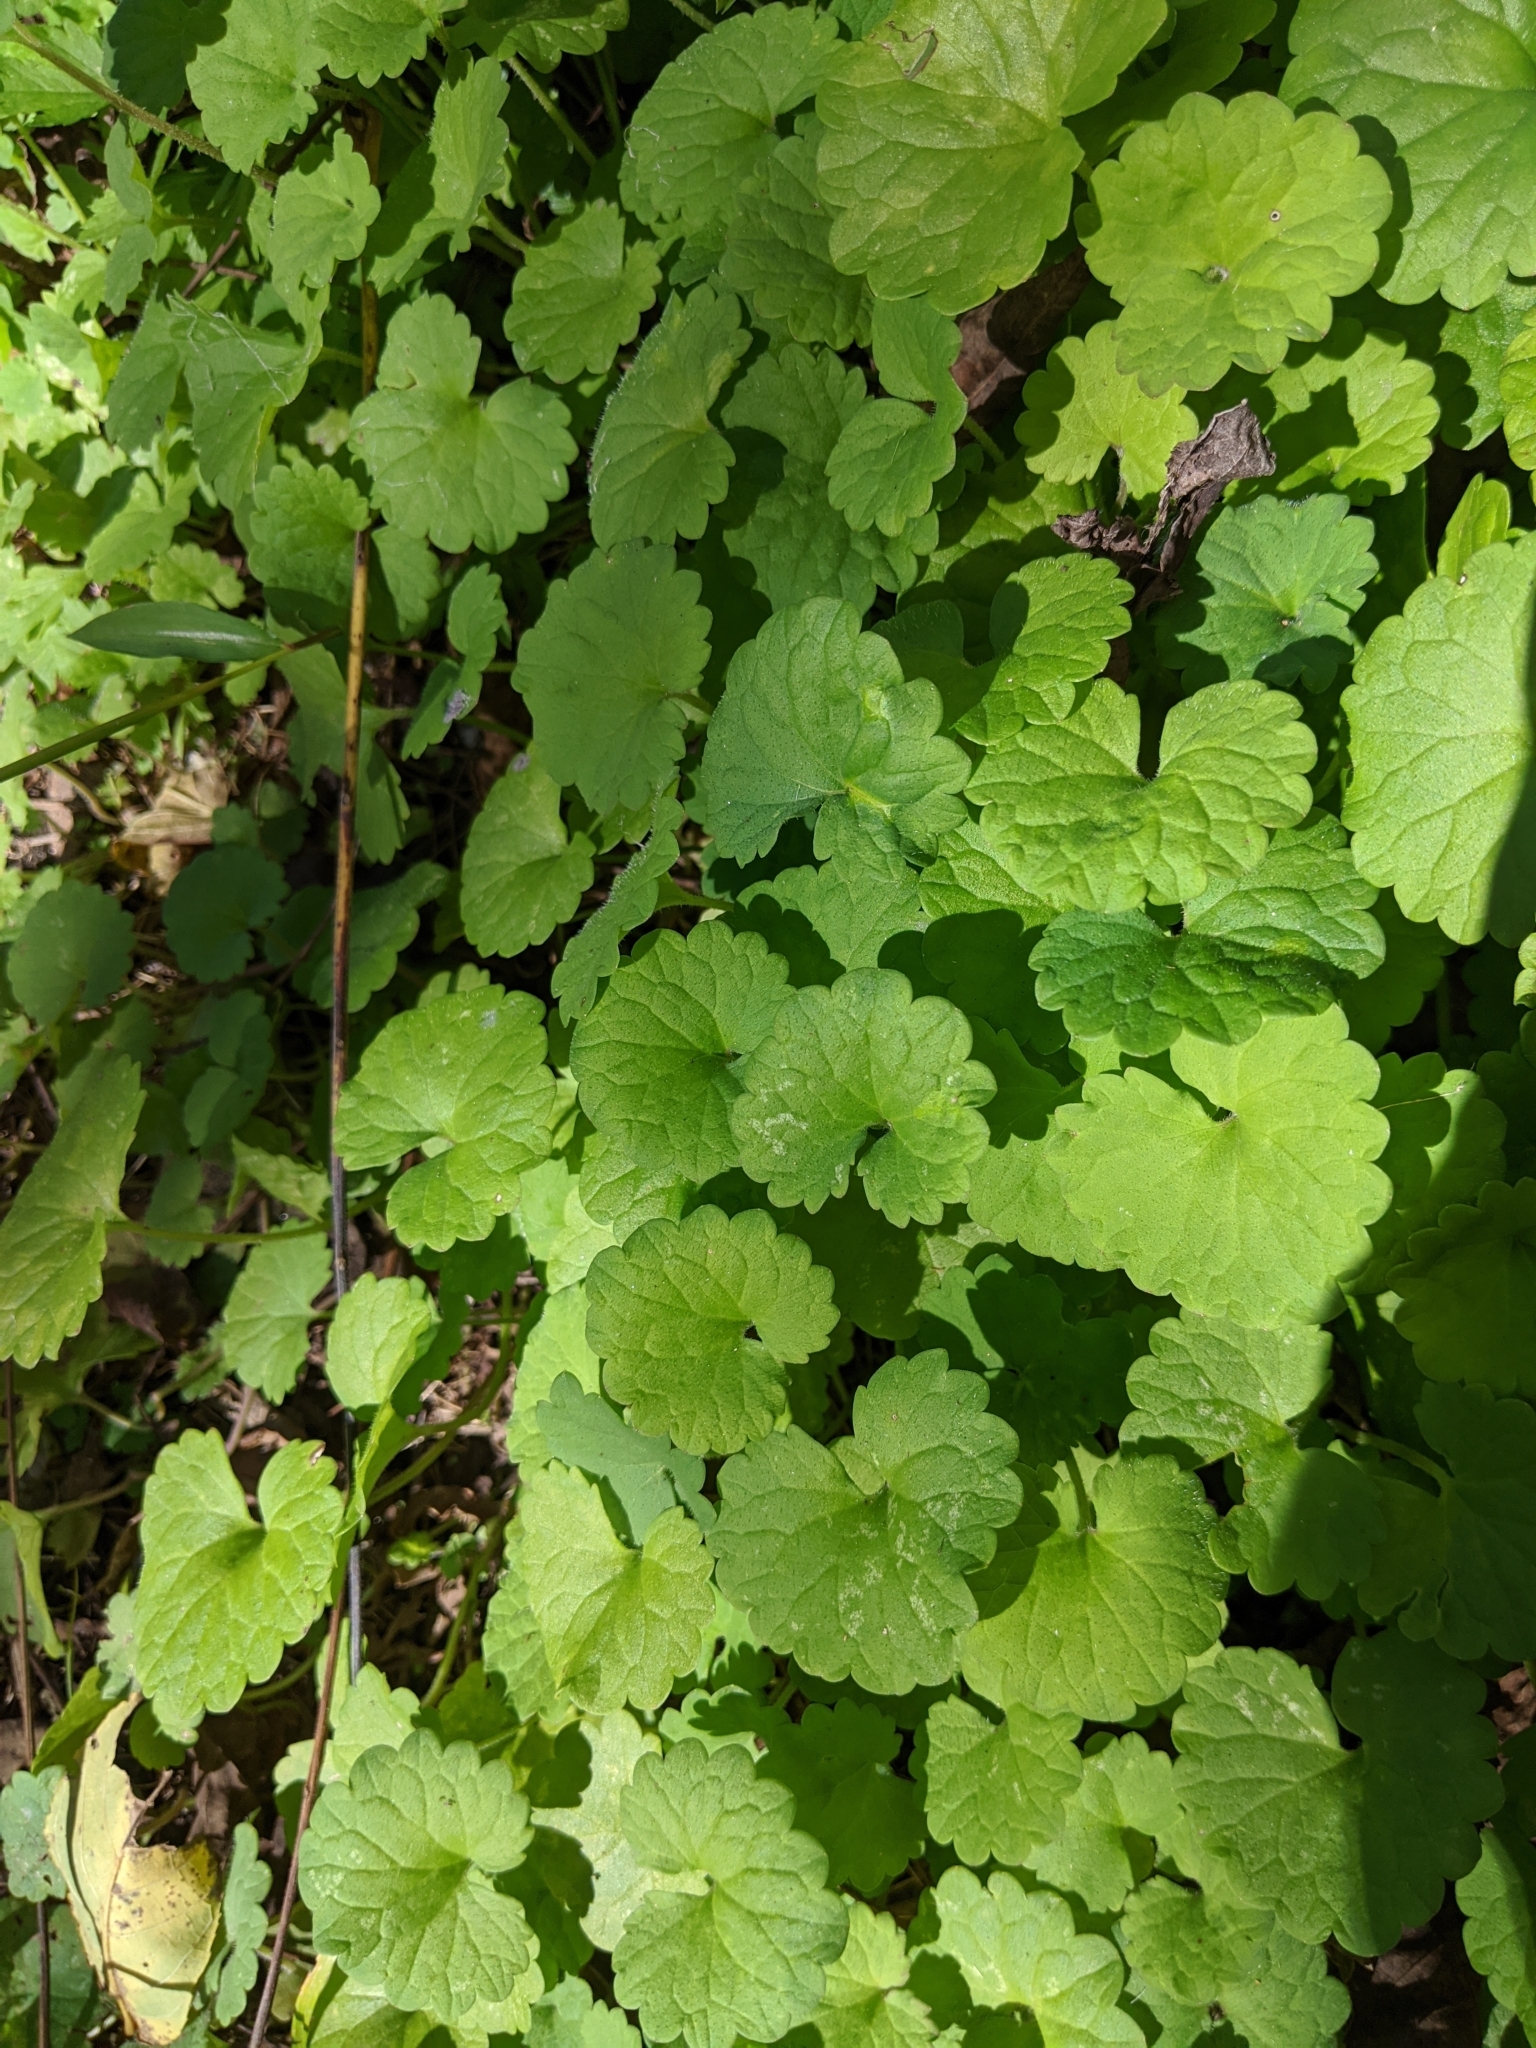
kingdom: Plantae
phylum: Tracheophyta
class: Magnoliopsida
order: Lamiales
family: Lamiaceae
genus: Glechoma
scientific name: Glechoma hederacea
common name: Ground ivy
